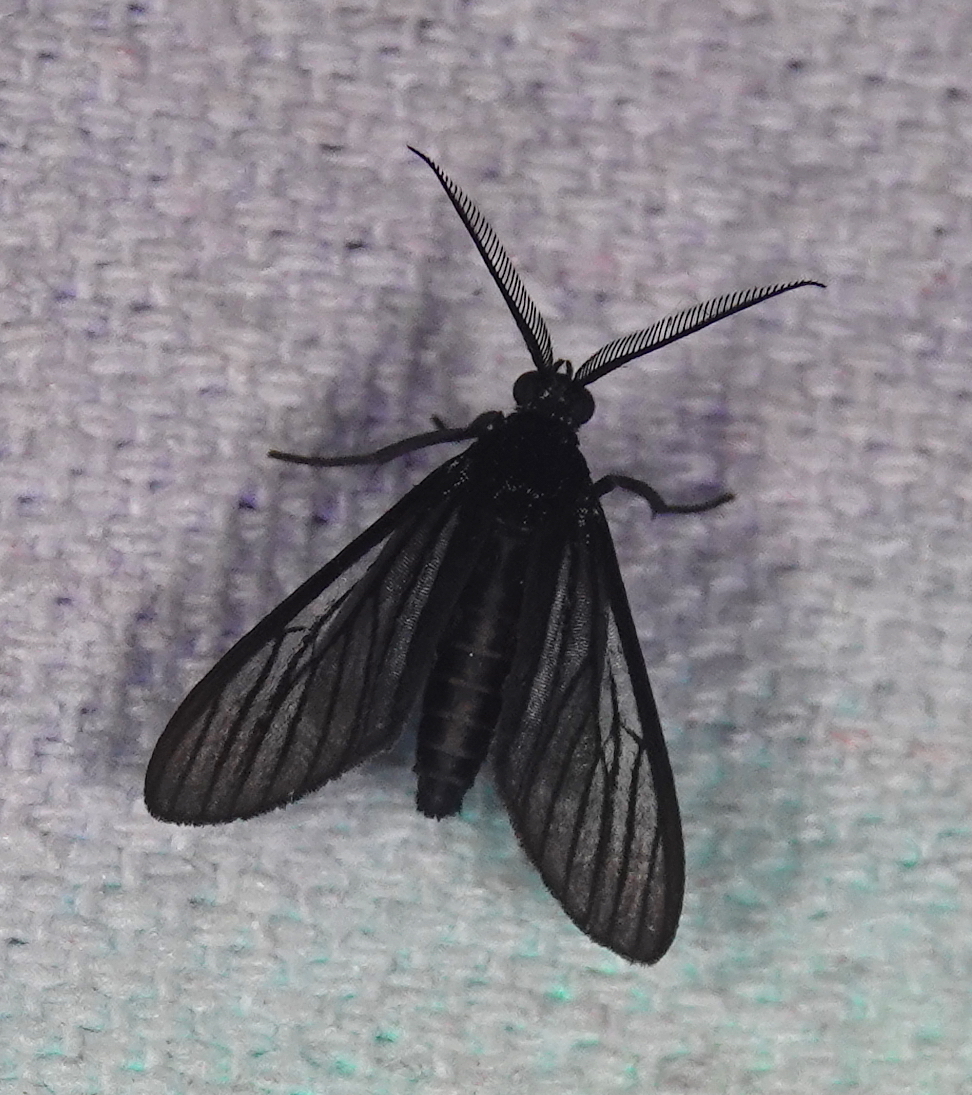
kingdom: Animalia
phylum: Arthropoda
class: Insecta
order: Lepidoptera
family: Erebidae
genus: Saurita
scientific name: Saurita tipulina
